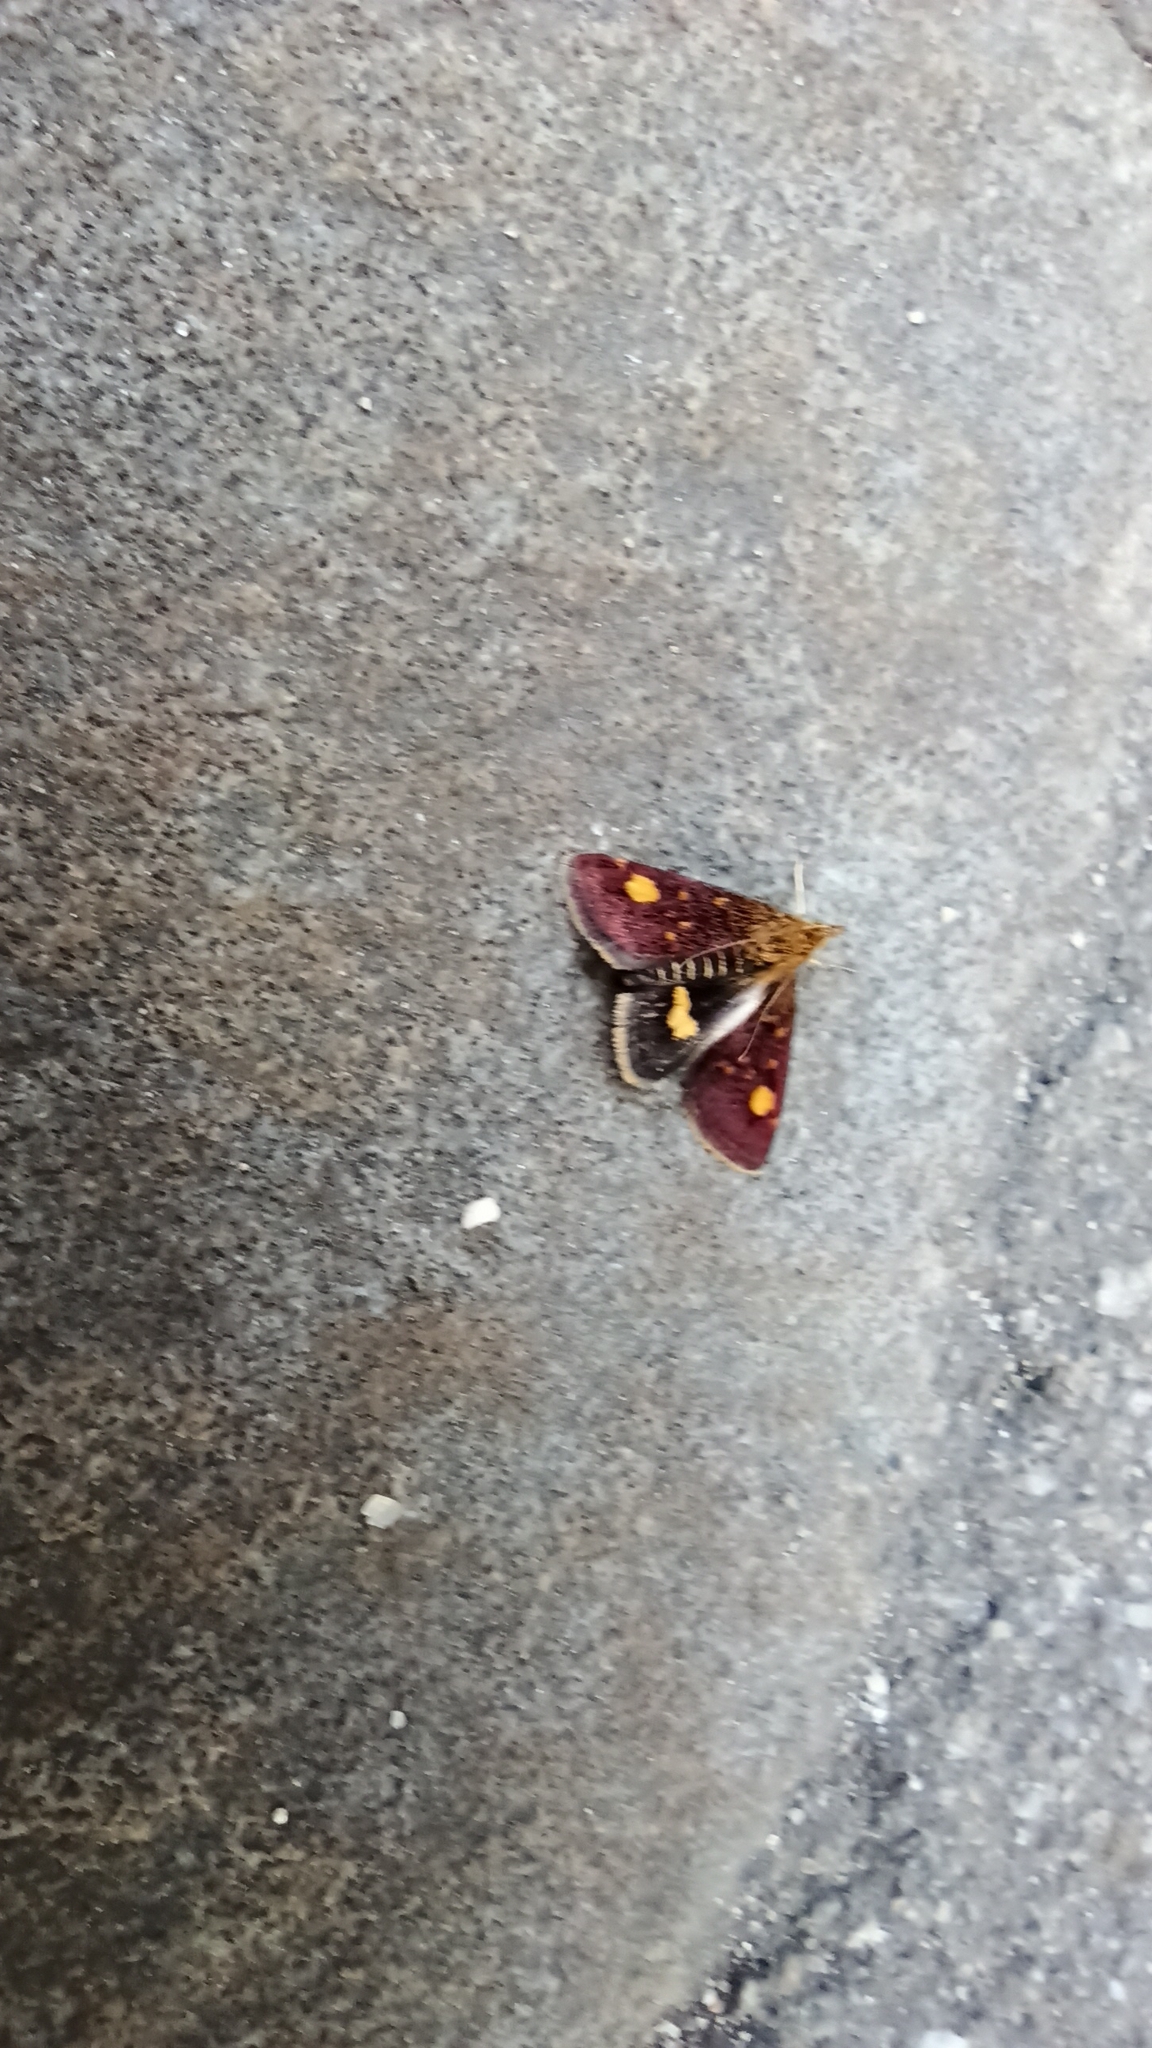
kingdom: Animalia
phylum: Arthropoda
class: Insecta
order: Lepidoptera
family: Crambidae
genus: Pyrausta
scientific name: Pyrausta aurata
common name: Small purple & gold
